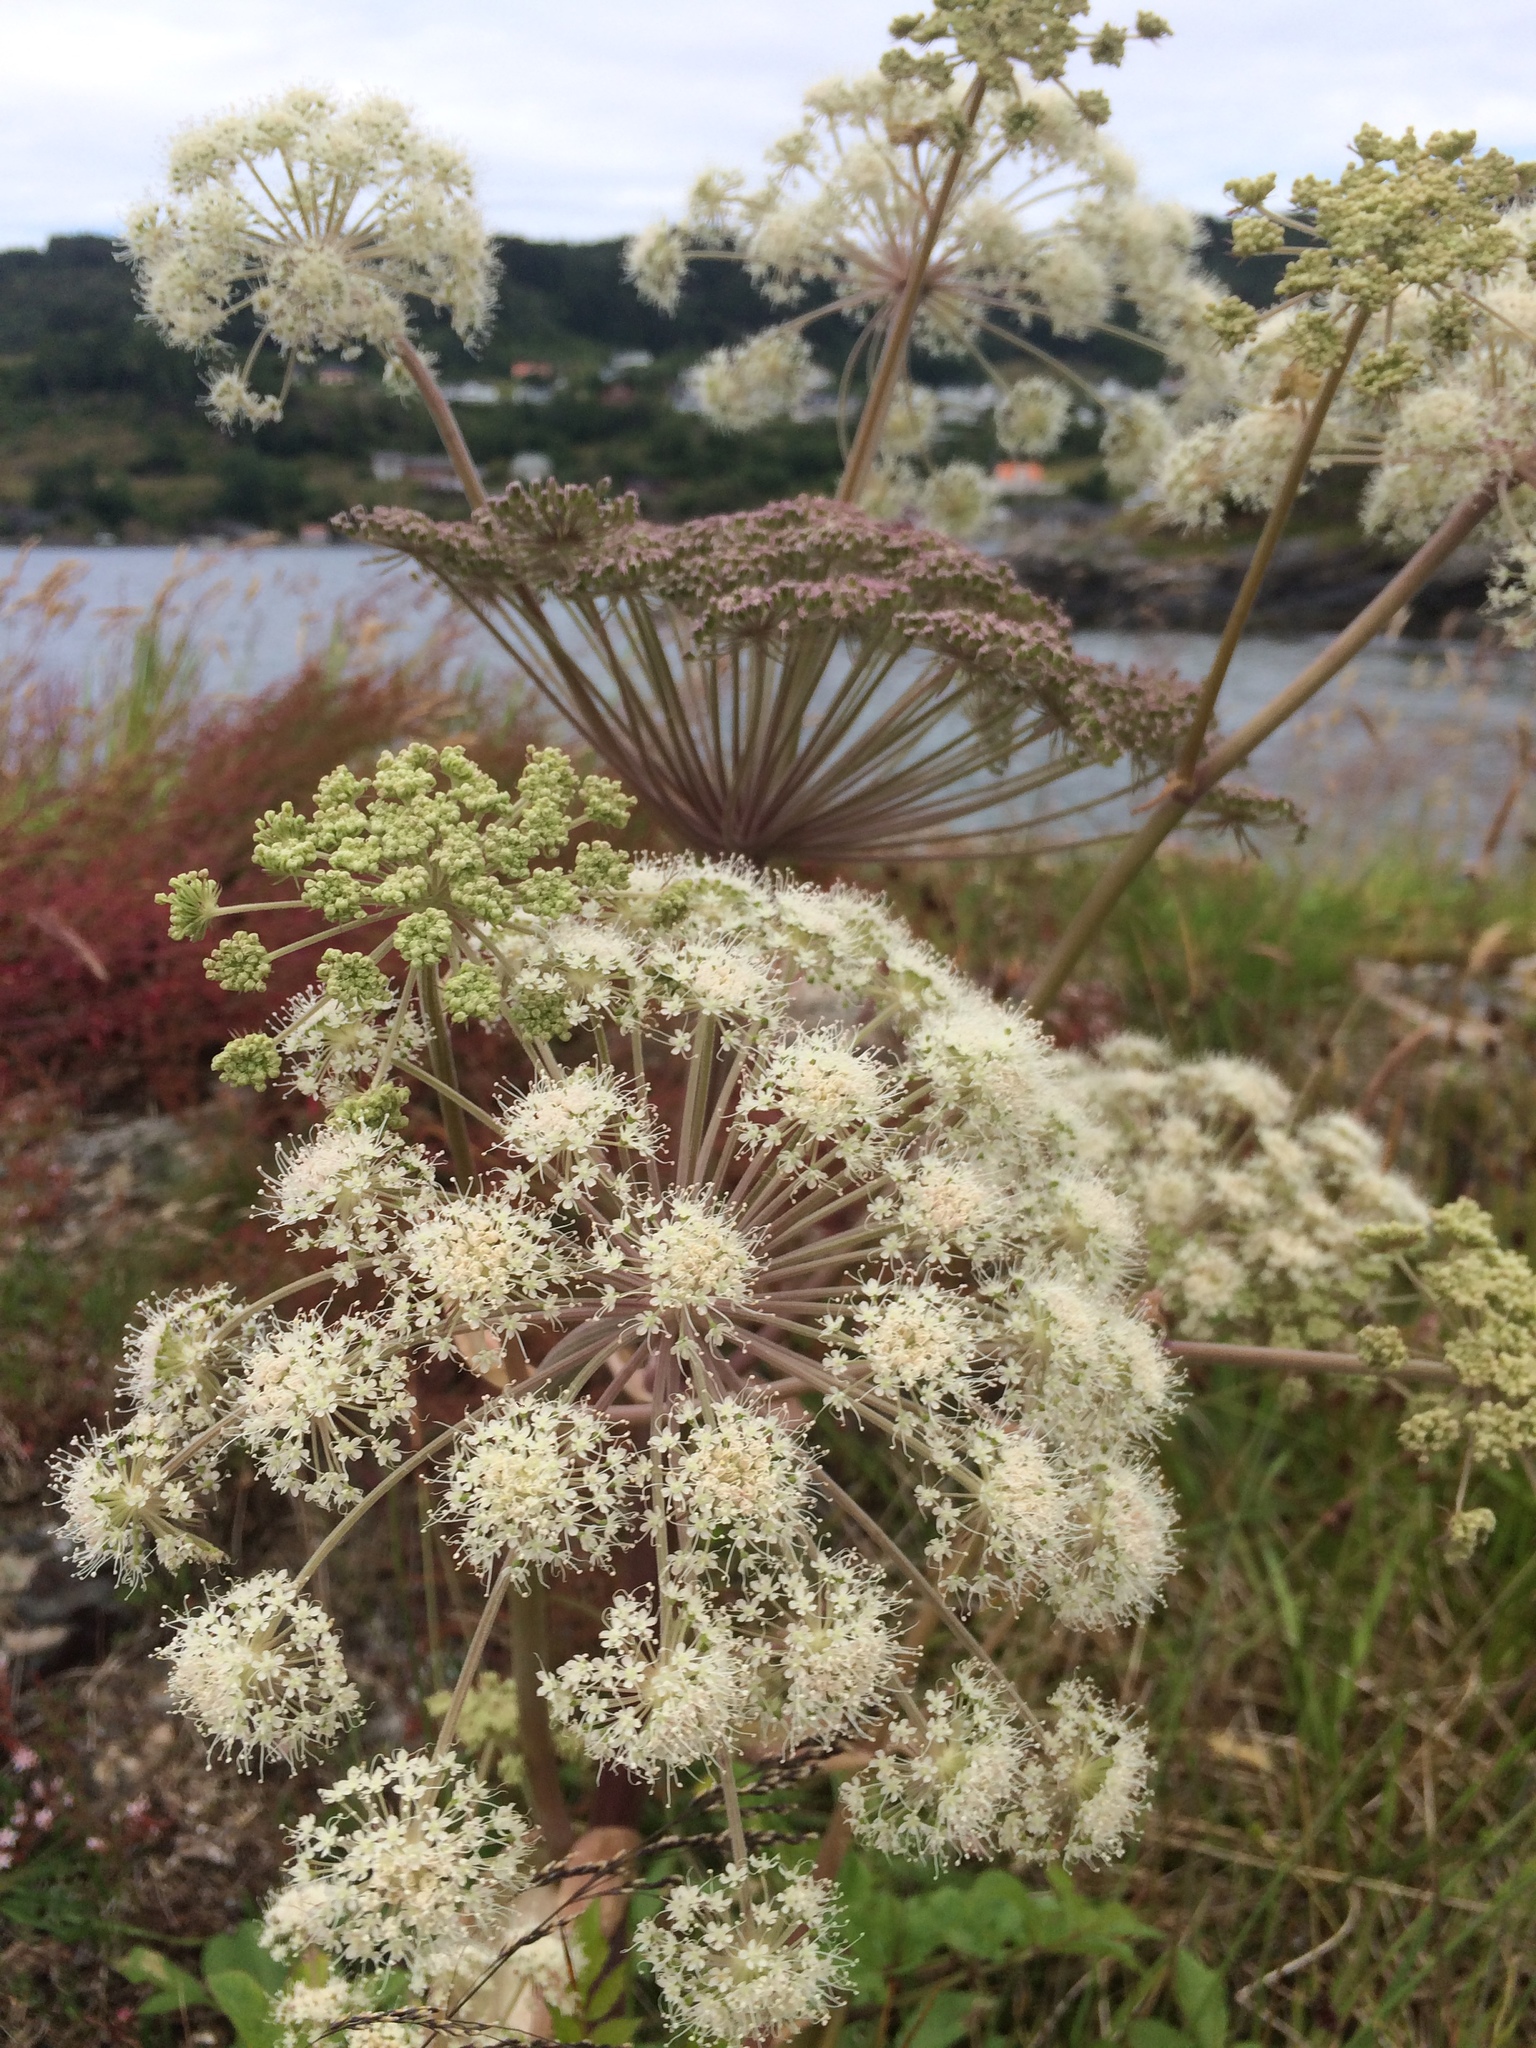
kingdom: Plantae
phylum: Tracheophyta
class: Magnoliopsida
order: Apiales
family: Apiaceae
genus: Angelica
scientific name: Angelica sylvestris
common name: Wild angelica
